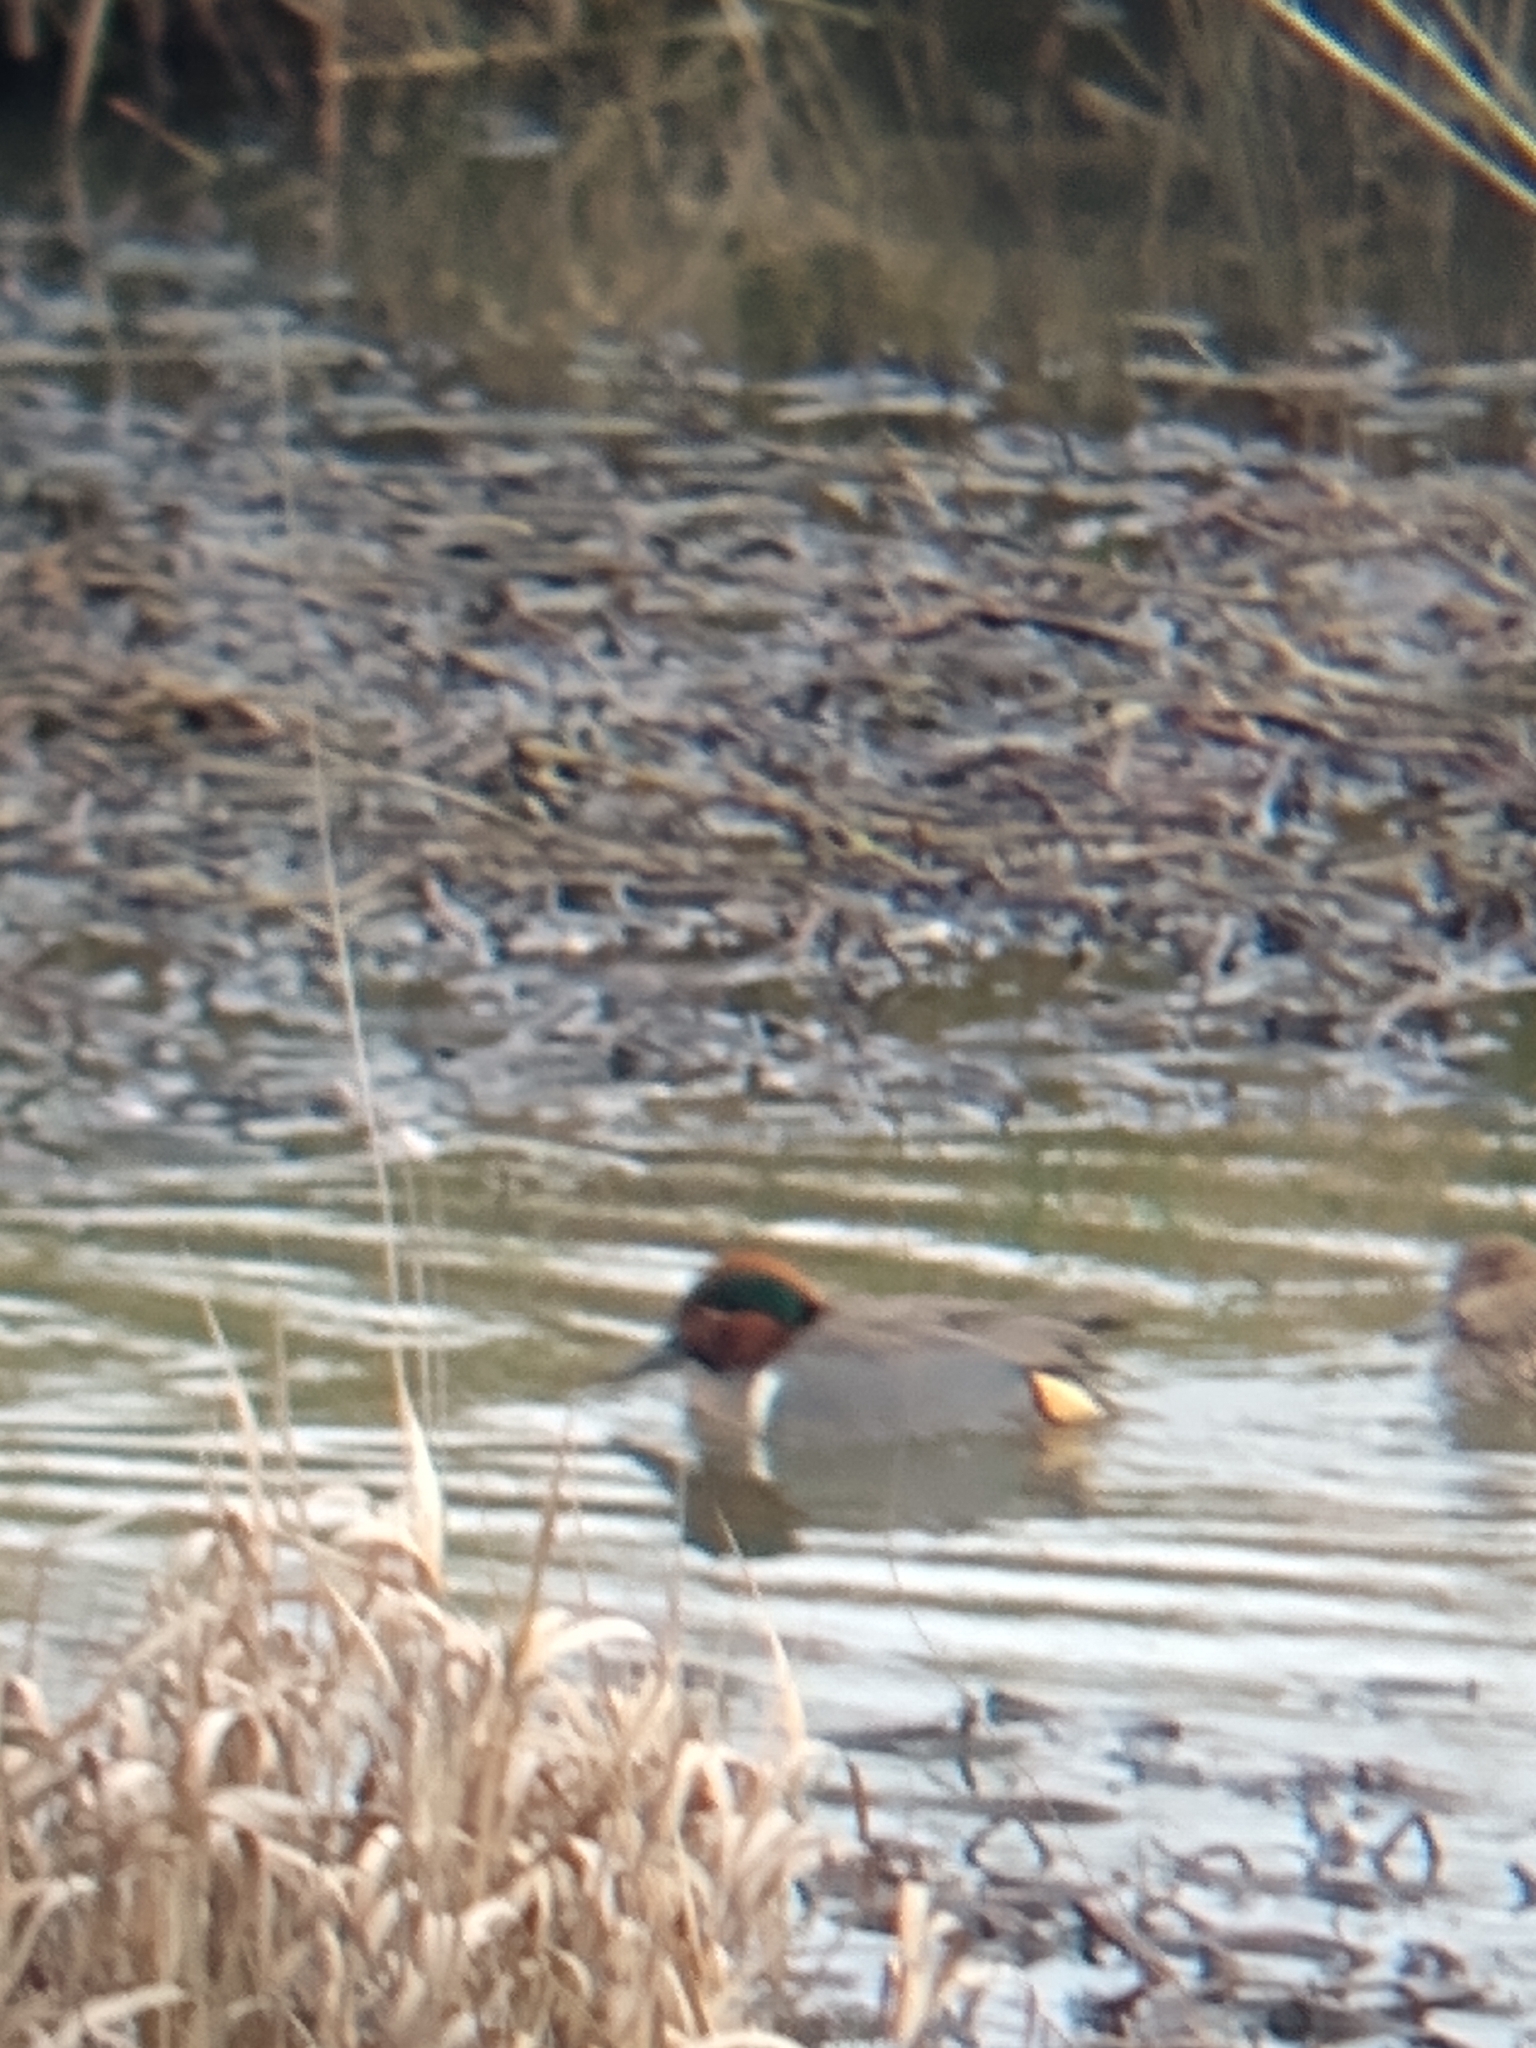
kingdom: Animalia
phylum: Chordata
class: Aves
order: Anseriformes
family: Anatidae
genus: Anas
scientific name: Anas crecca
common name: Eurasian teal
